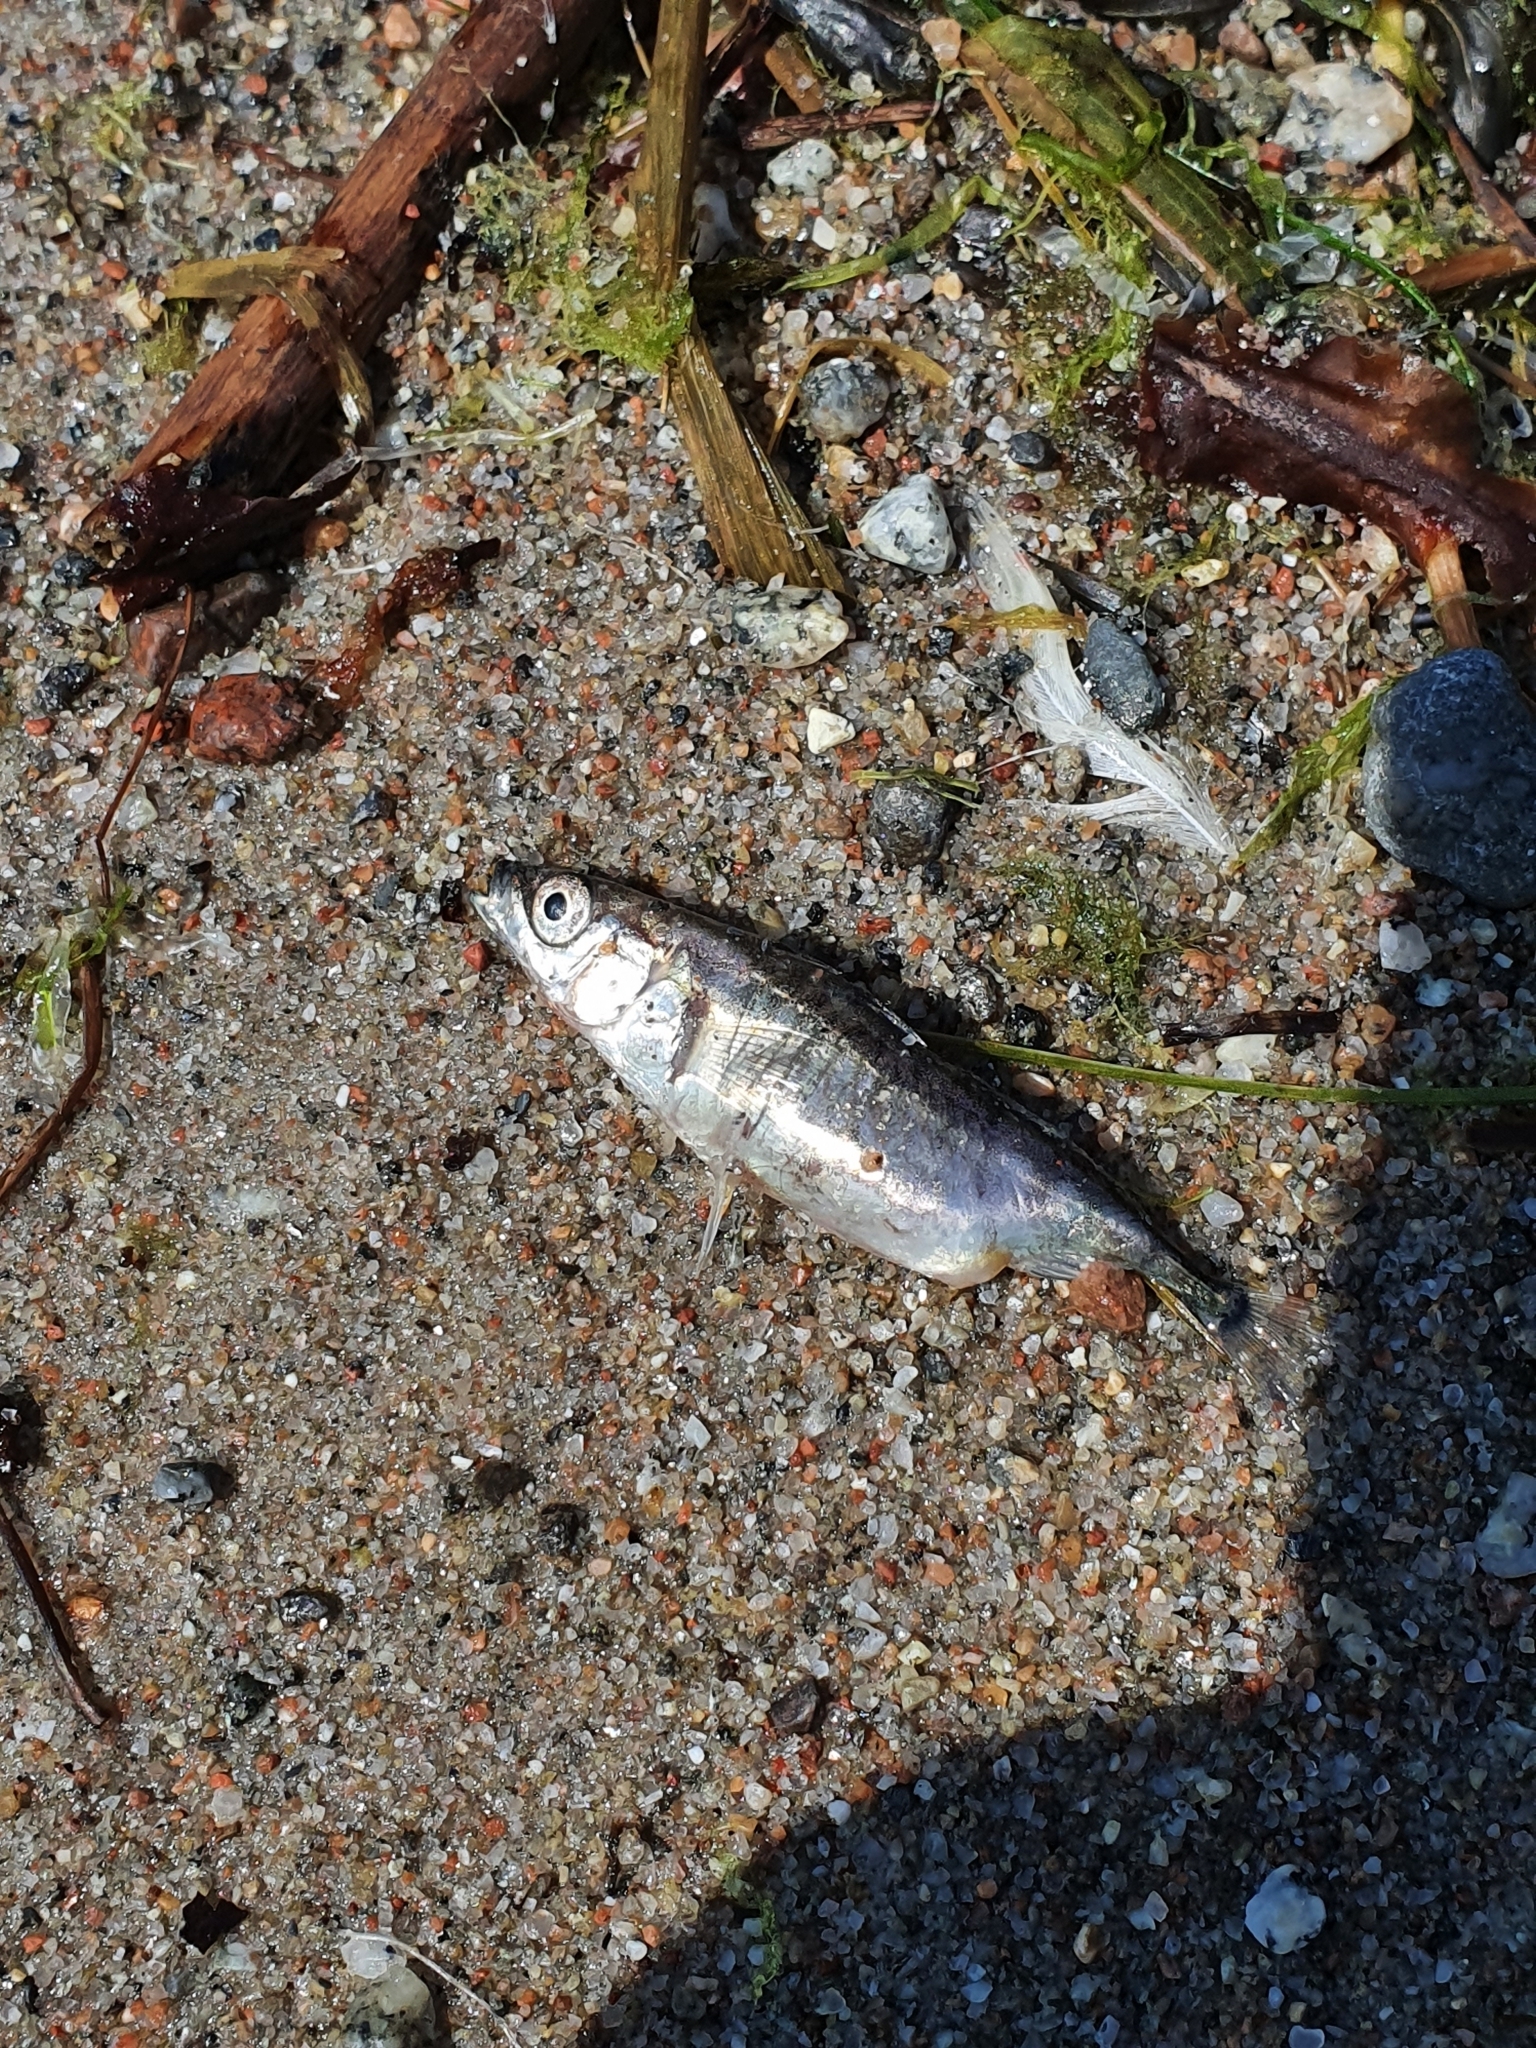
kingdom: Animalia
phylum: Chordata
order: Gasterosteiformes
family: Gasterosteidae
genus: Gasterosteus
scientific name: Gasterosteus aculeatus
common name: Three-spined stickleback
